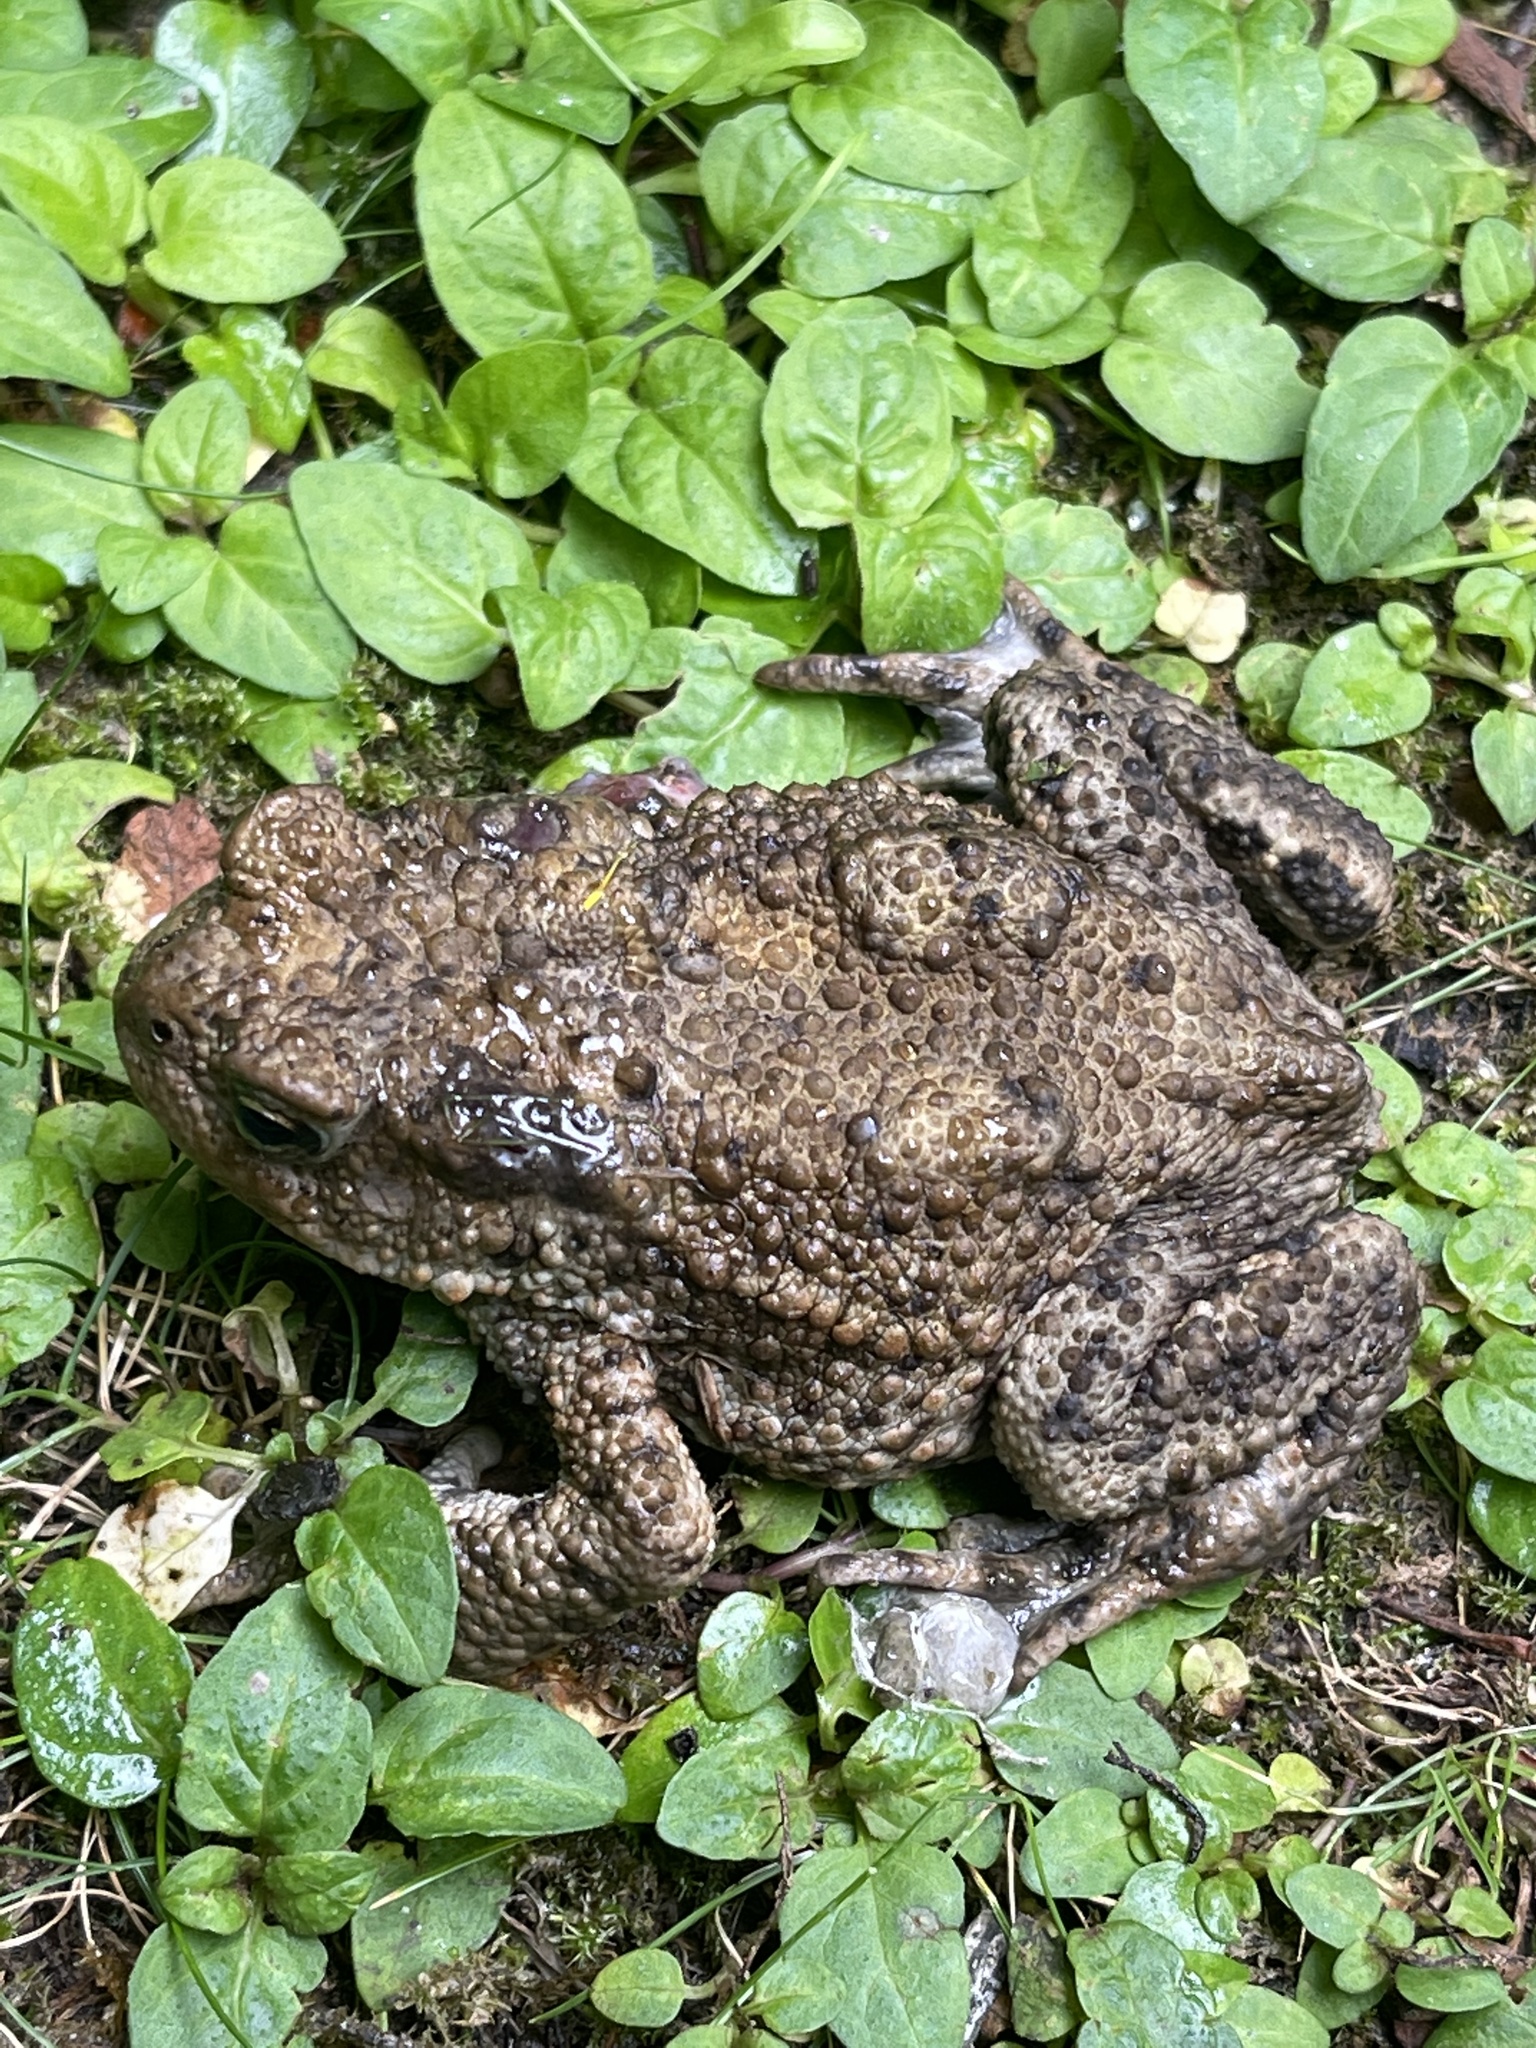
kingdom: Animalia
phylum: Chordata
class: Amphibia
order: Anura
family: Bufonidae
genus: Bufo
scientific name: Bufo bufo
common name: Common toad
